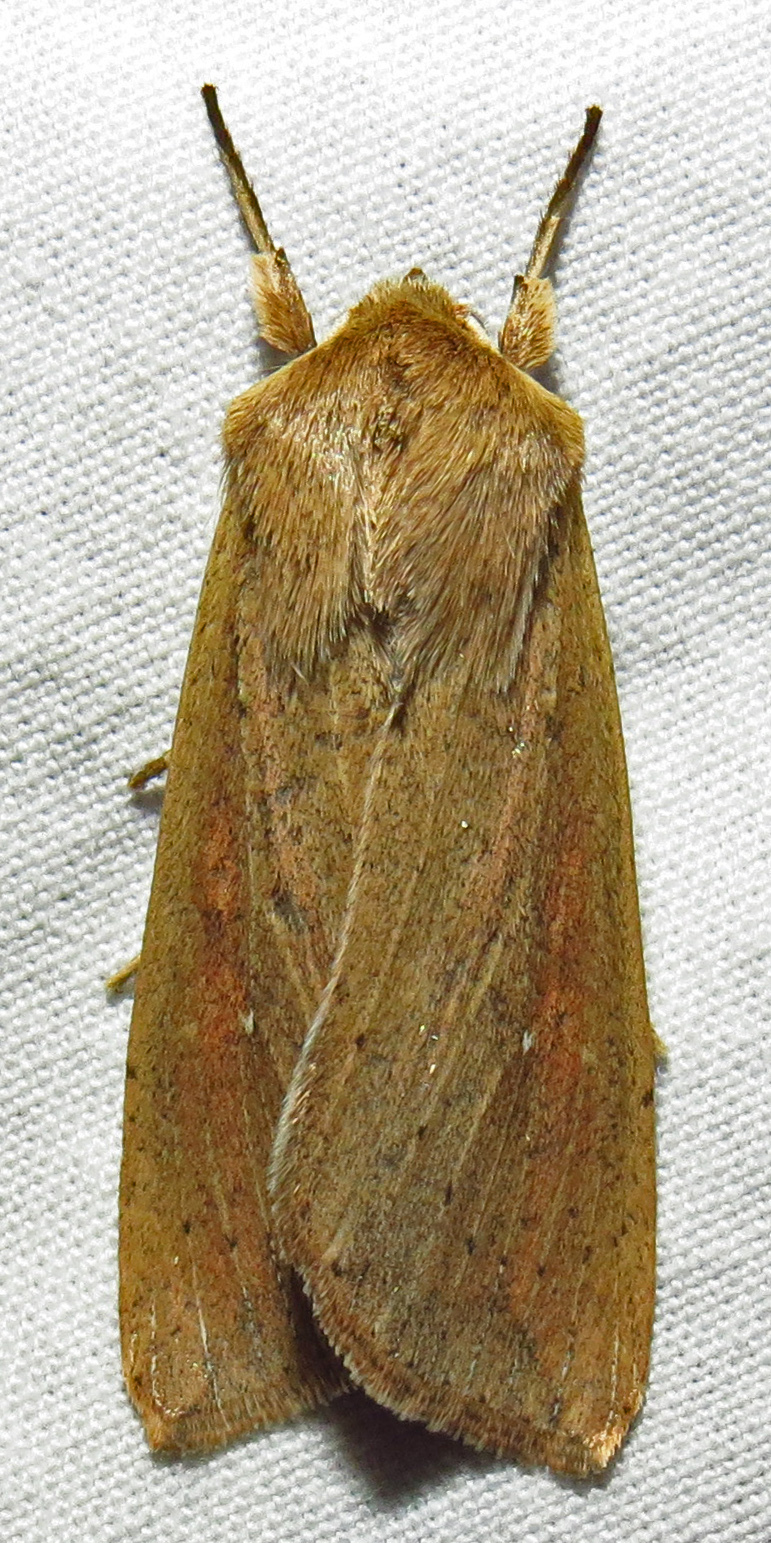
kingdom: Animalia
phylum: Arthropoda
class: Insecta
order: Lepidoptera
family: Noctuidae
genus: Mythimna
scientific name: Mythimna unipuncta
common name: White-speck
